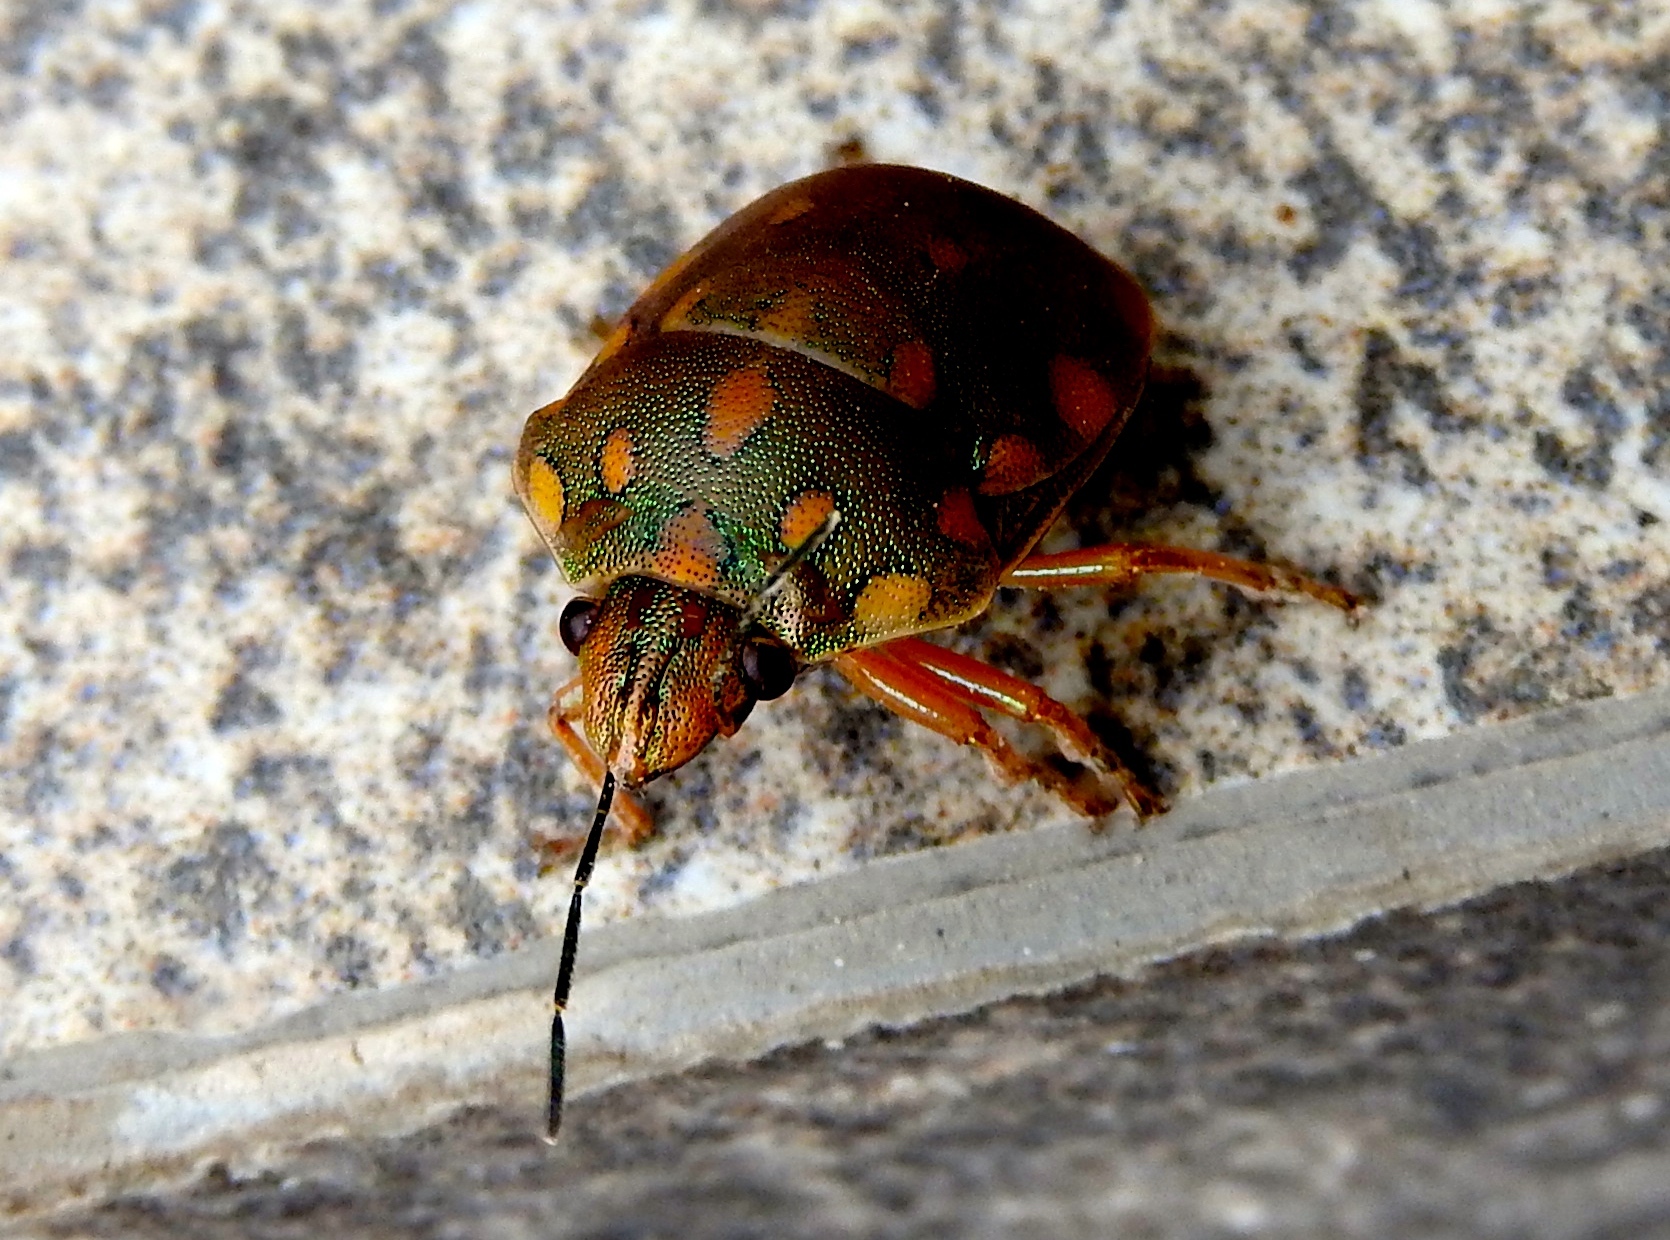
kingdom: Animalia
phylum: Arthropoda
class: Insecta
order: Hemiptera
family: Scutelleridae
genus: Pachycoris
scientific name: Pachycoris torridus
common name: Torrid jewel bug
